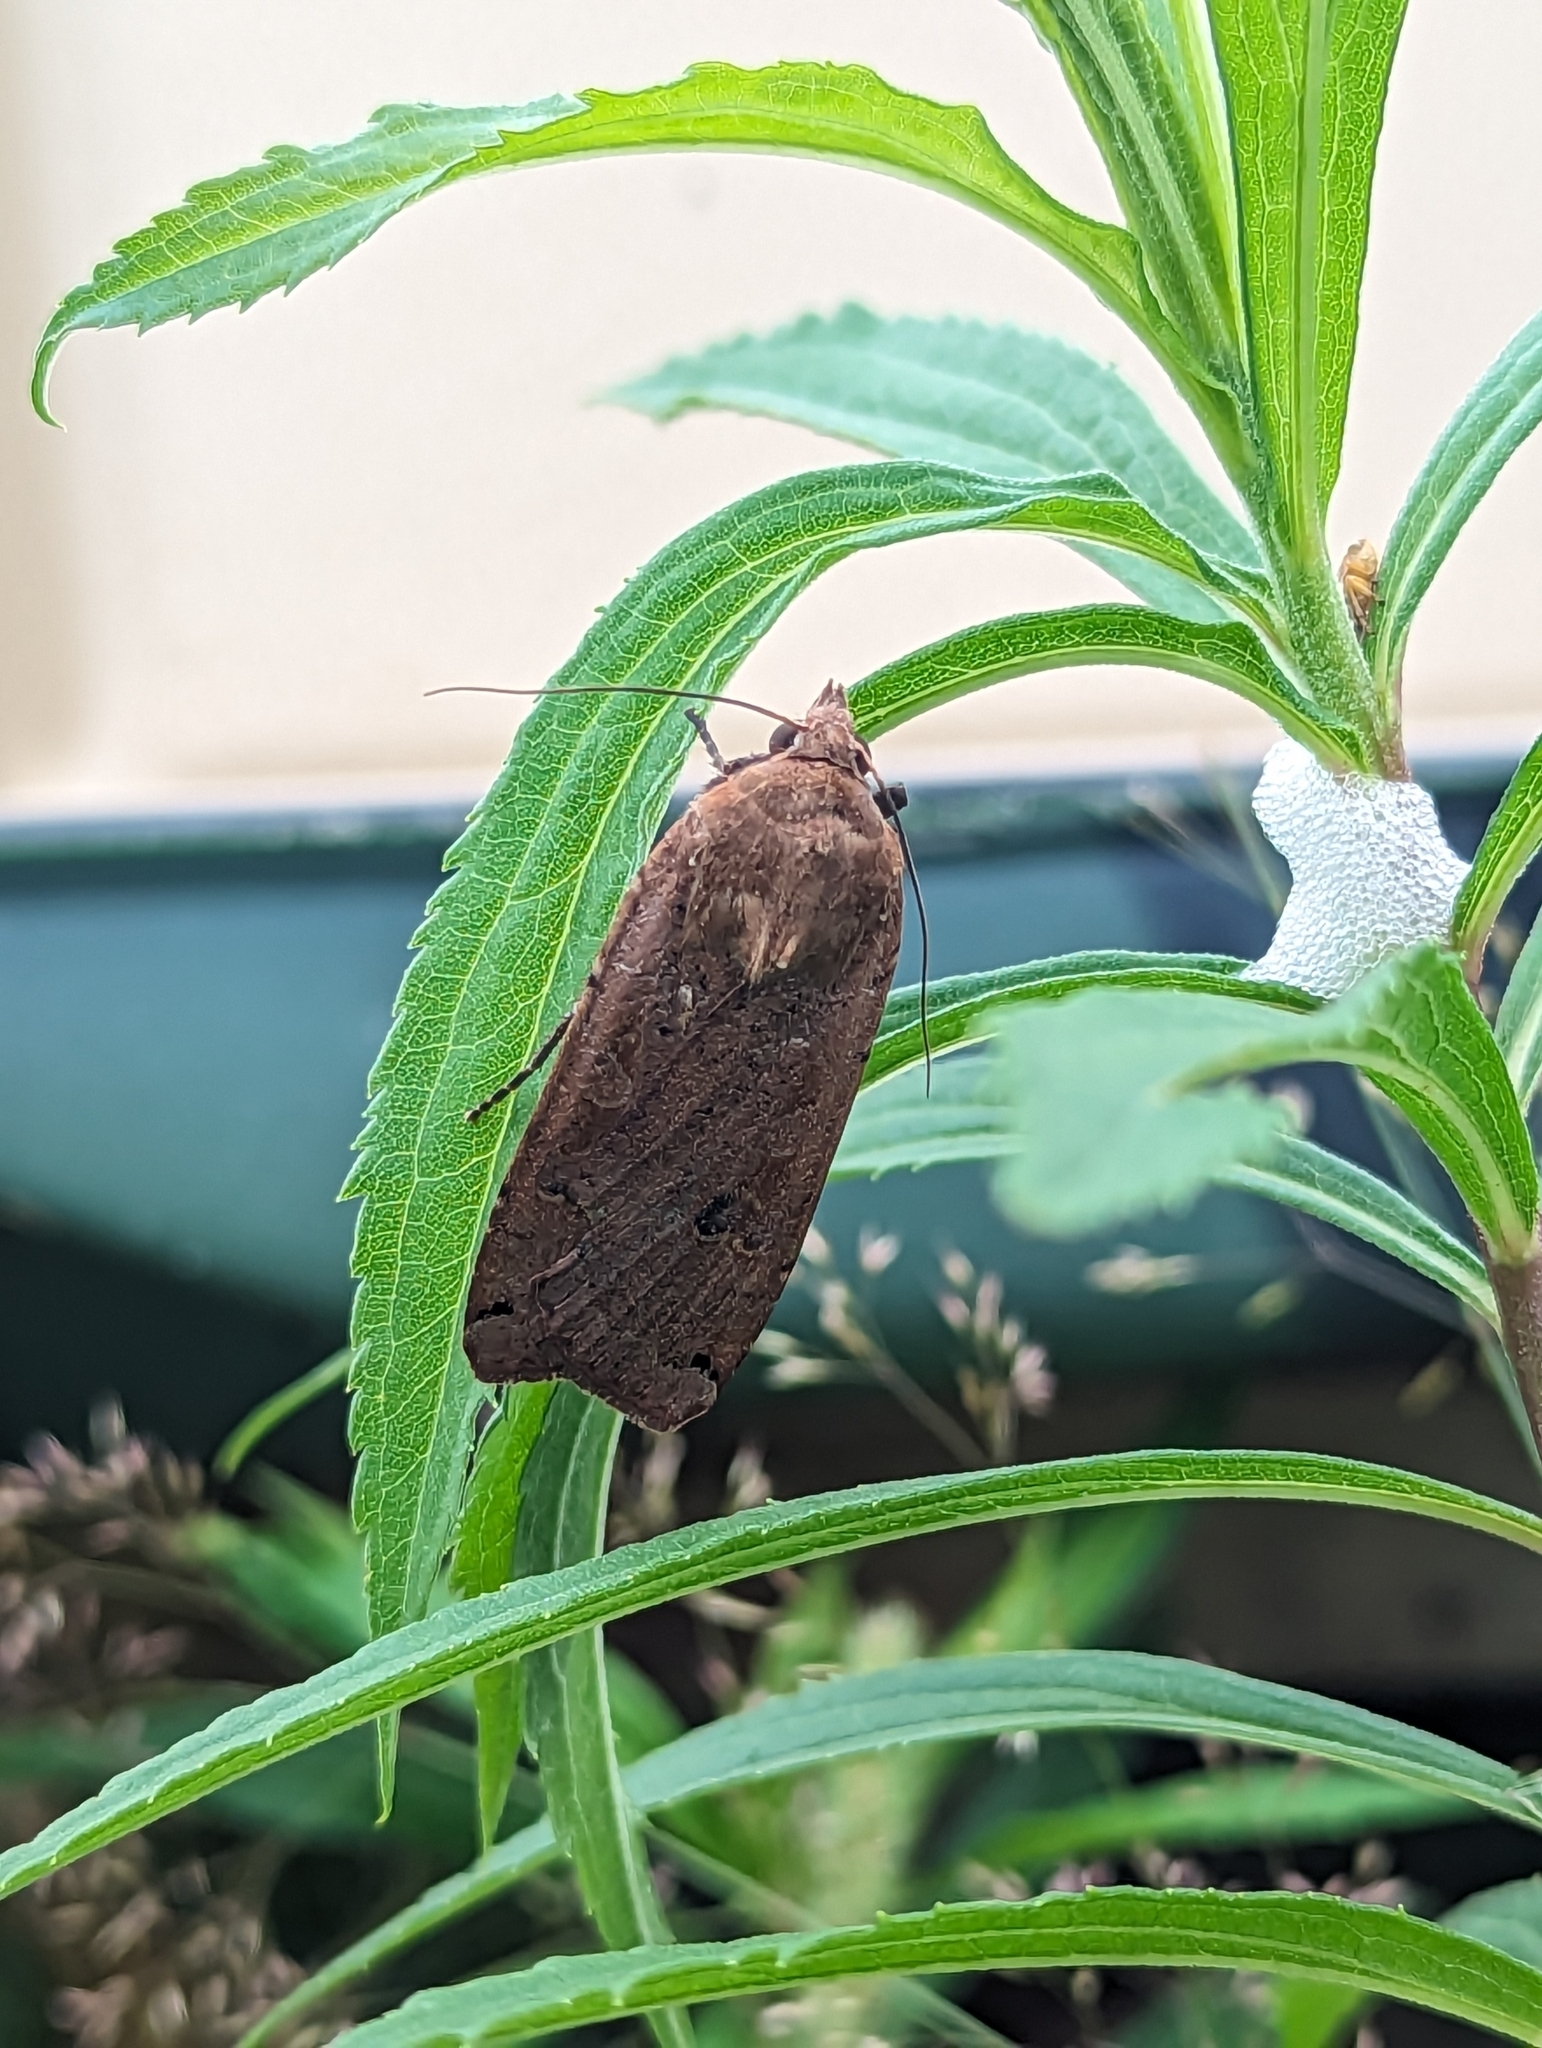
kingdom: Animalia
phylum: Arthropoda
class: Insecta
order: Lepidoptera
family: Noctuidae
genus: Noctua
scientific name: Noctua pronuba
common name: Large yellow underwing
